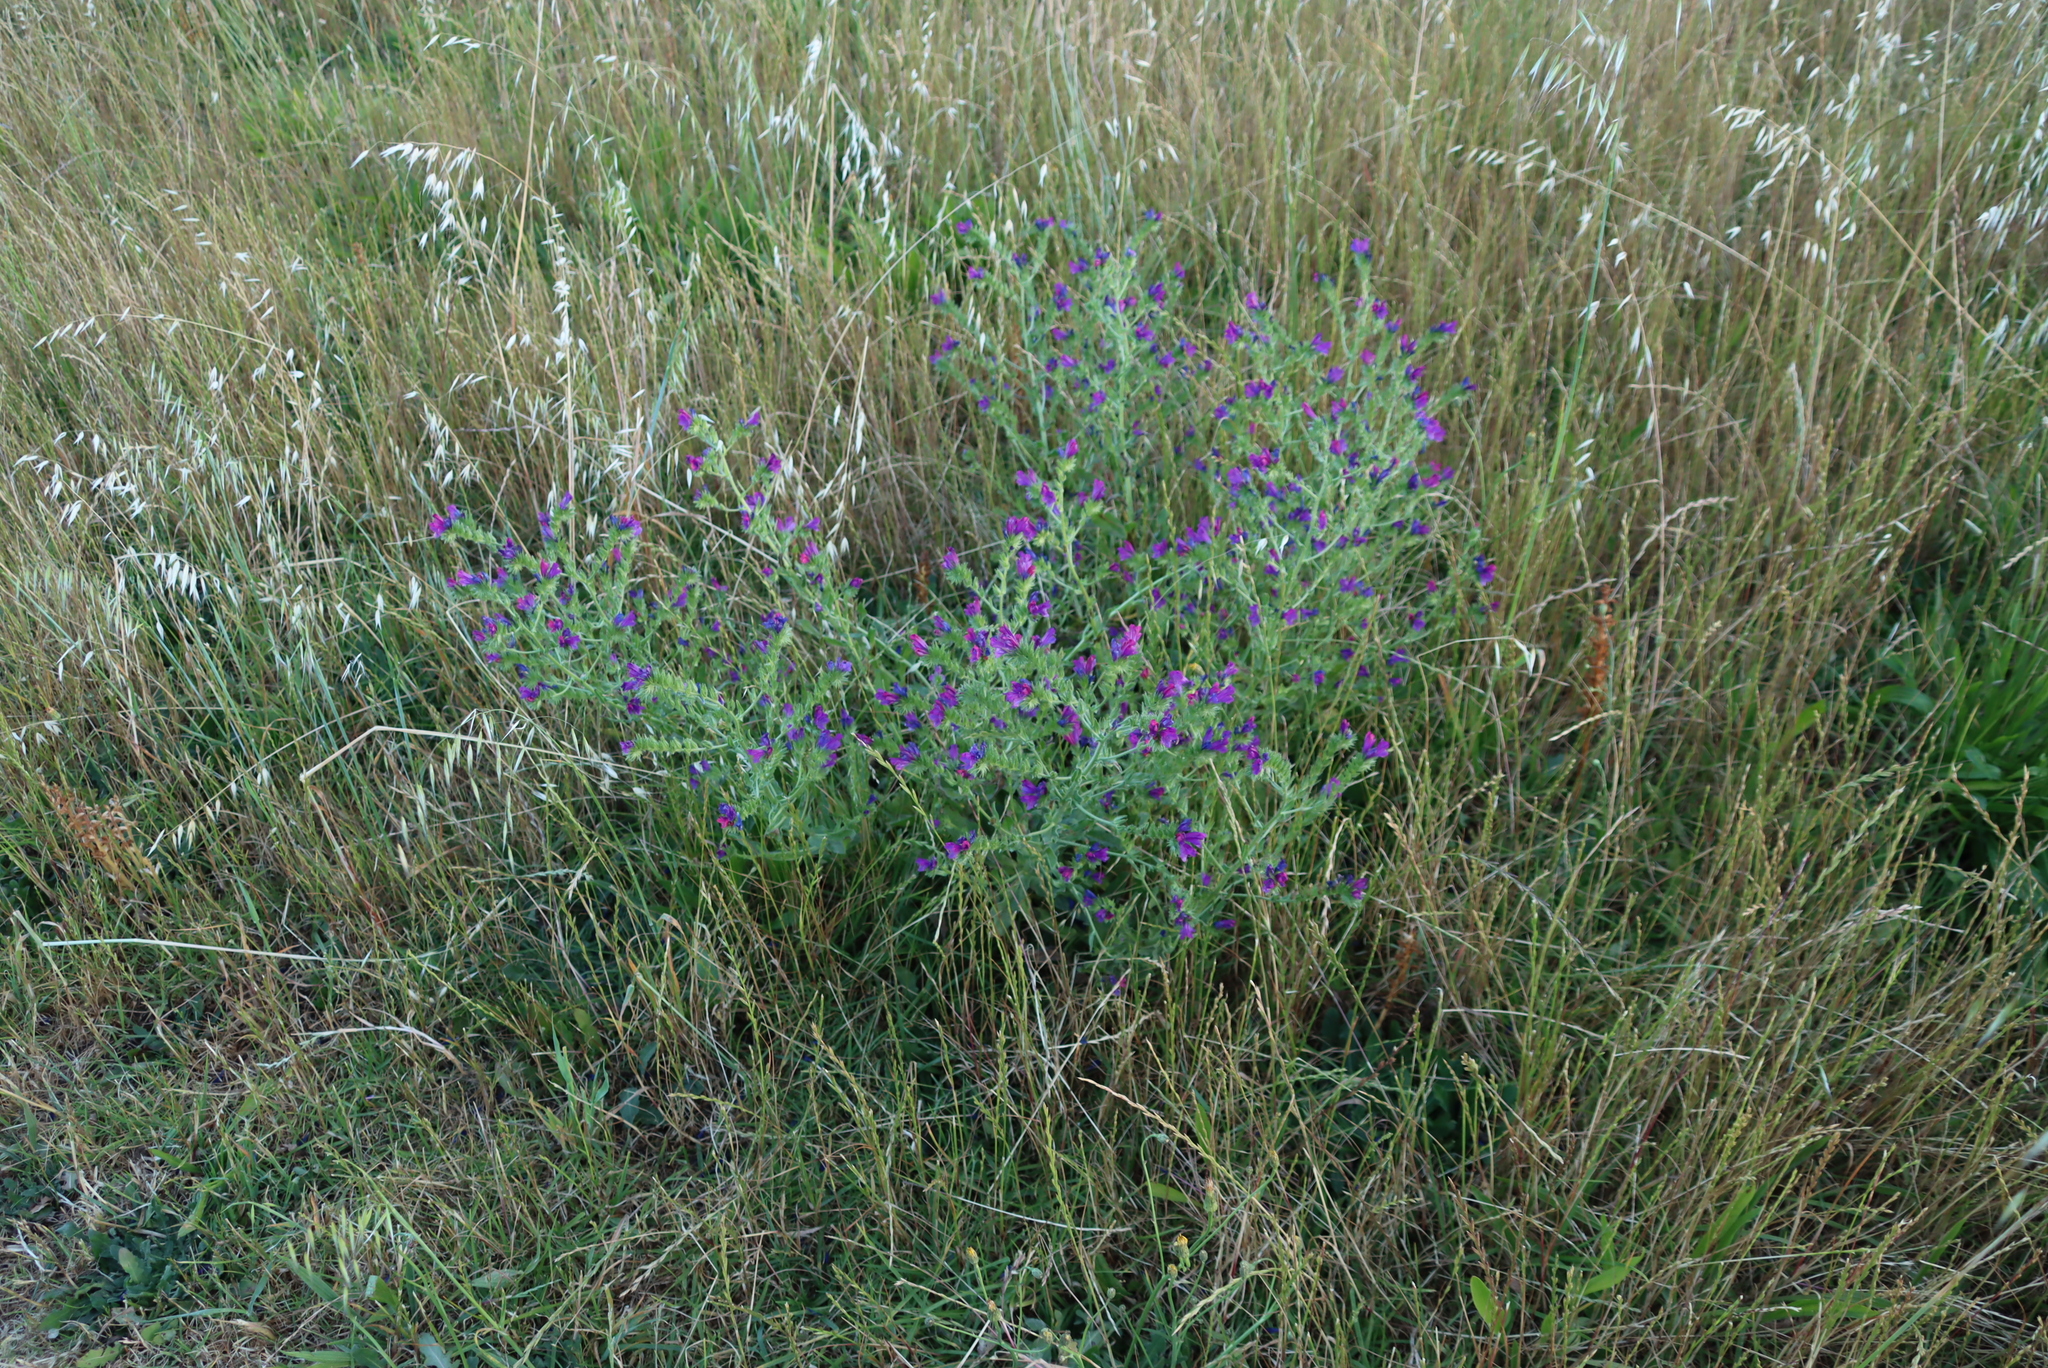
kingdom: Plantae
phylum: Tracheophyta
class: Magnoliopsida
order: Boraginales
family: Boraginaceae
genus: Echium
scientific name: Echium plantagineum
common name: Purple viper's-bugloss
